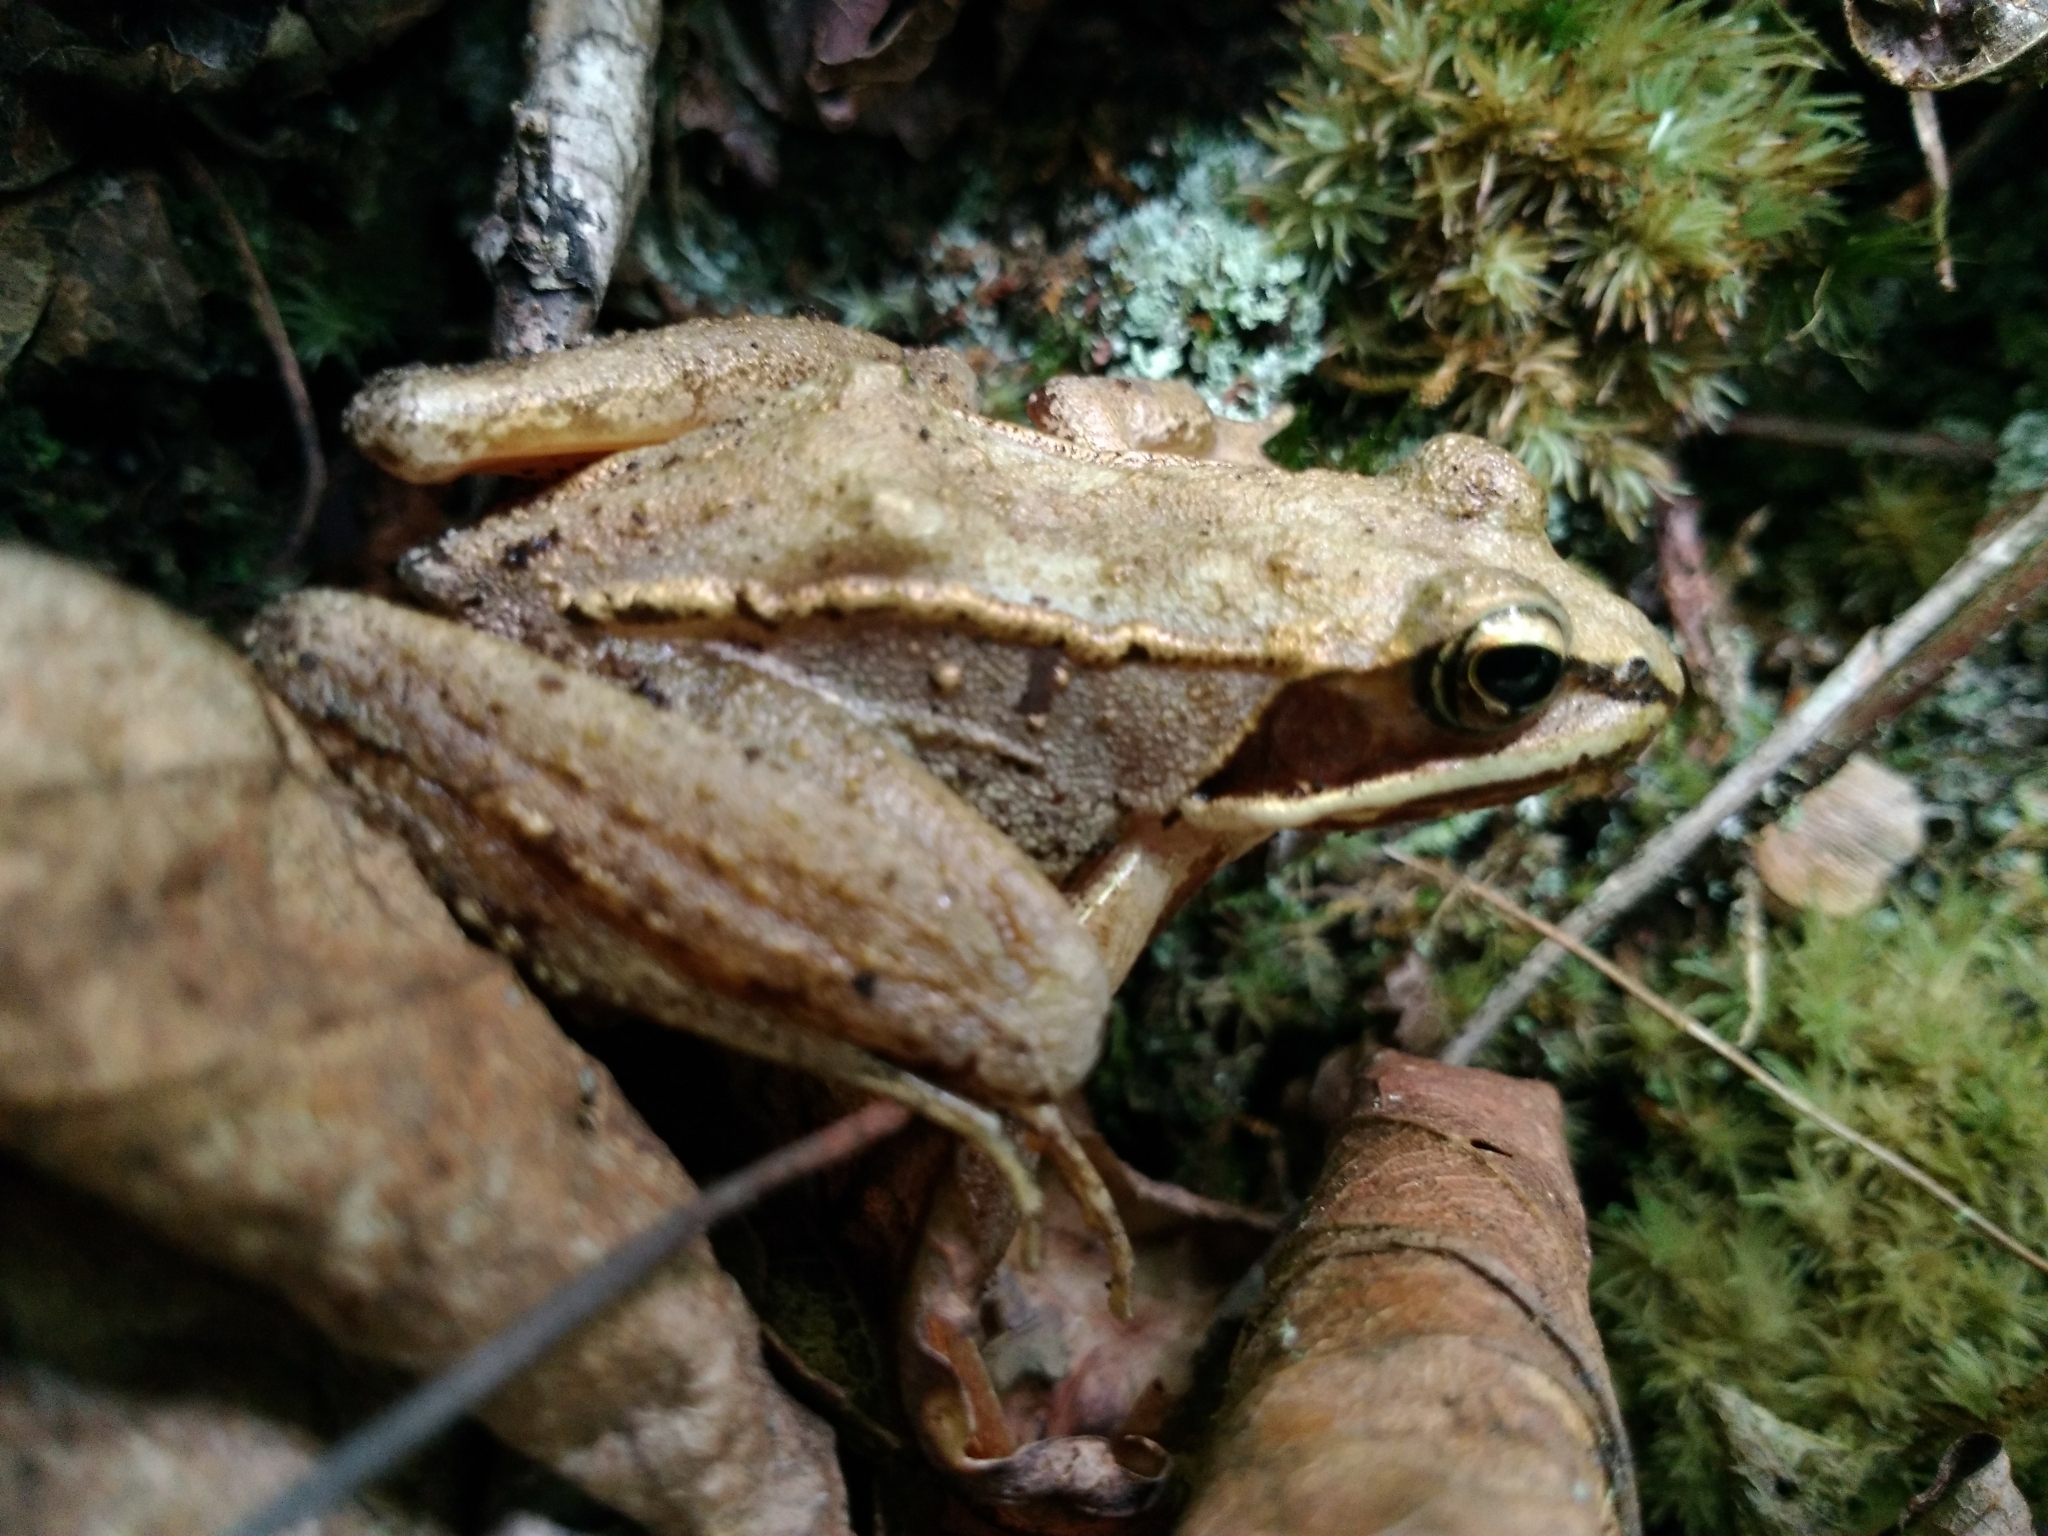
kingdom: Animalia
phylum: Chordata
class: Amphibia
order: Anura
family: Ranidae
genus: Lithobates
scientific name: Lithobates sylvaticus
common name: Wood frog
